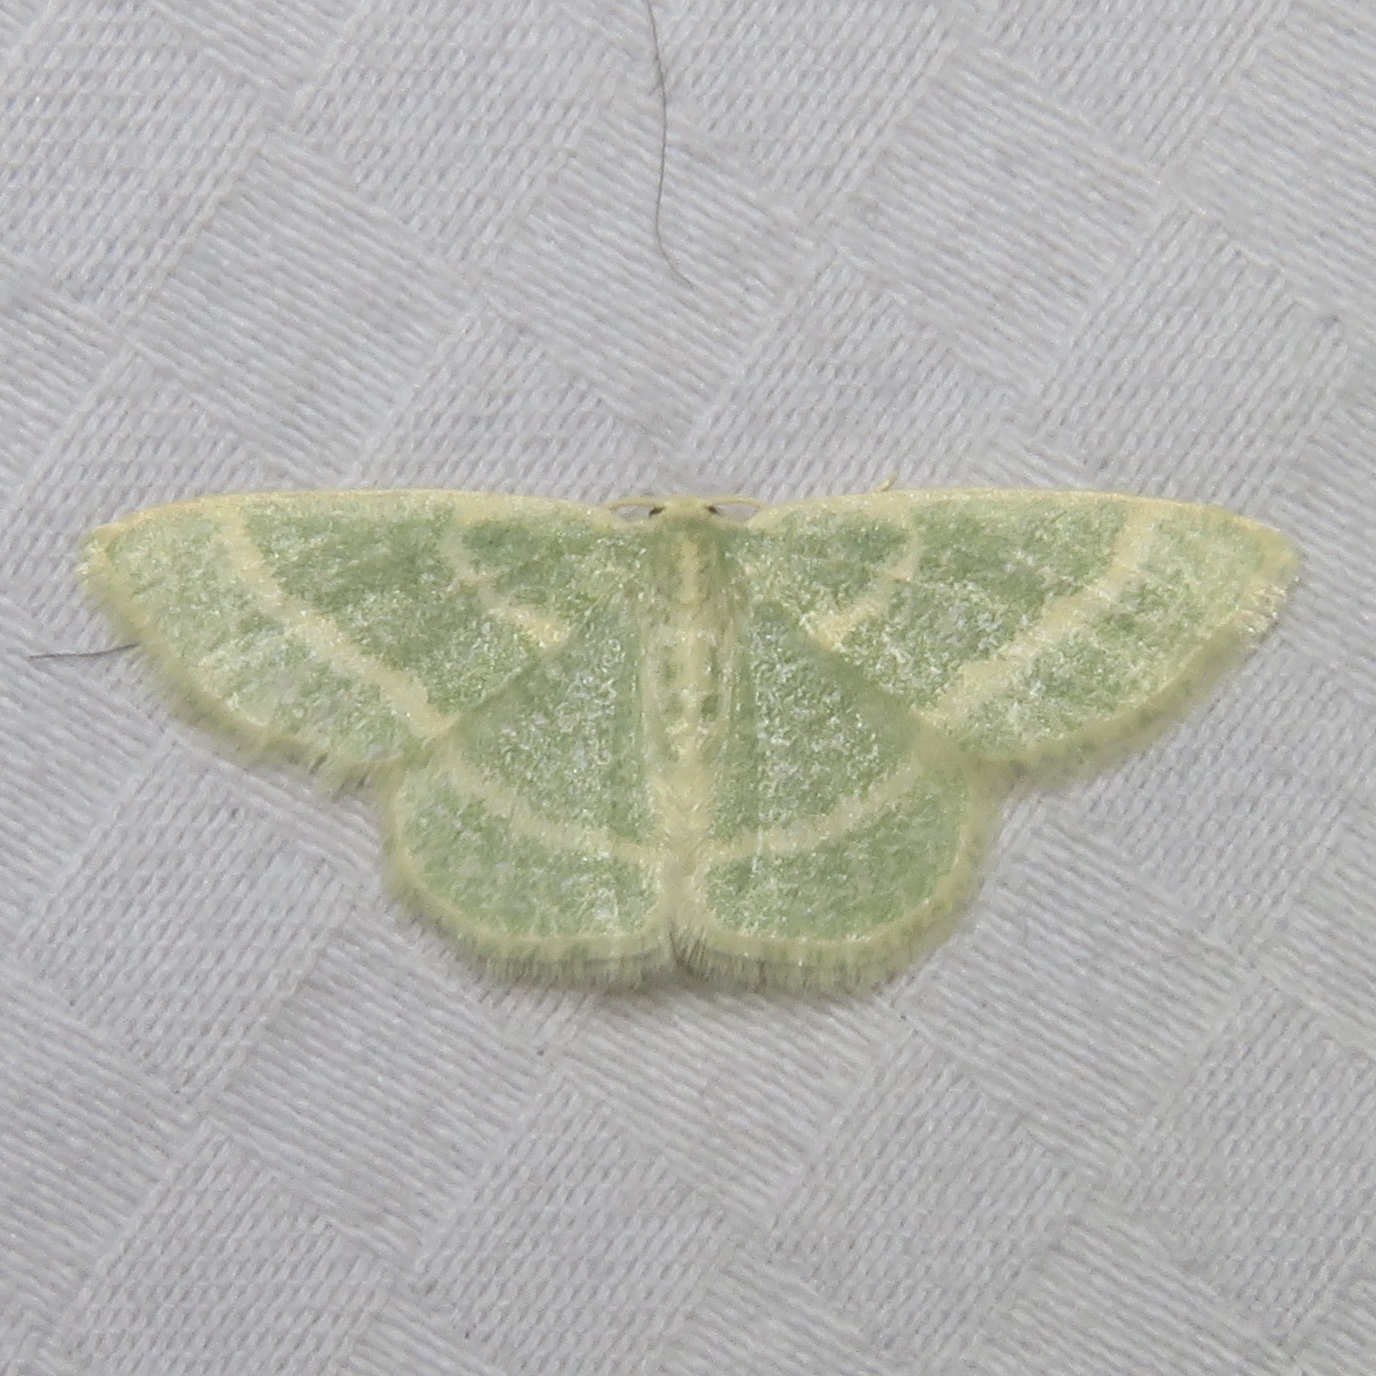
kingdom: Animalia
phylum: Arthropoda
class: Insecta
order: Lepidoptera
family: Geometridae
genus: Chlorochlamys
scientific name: Chlorochlamys chloroleucaria
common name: Blackberry looper
